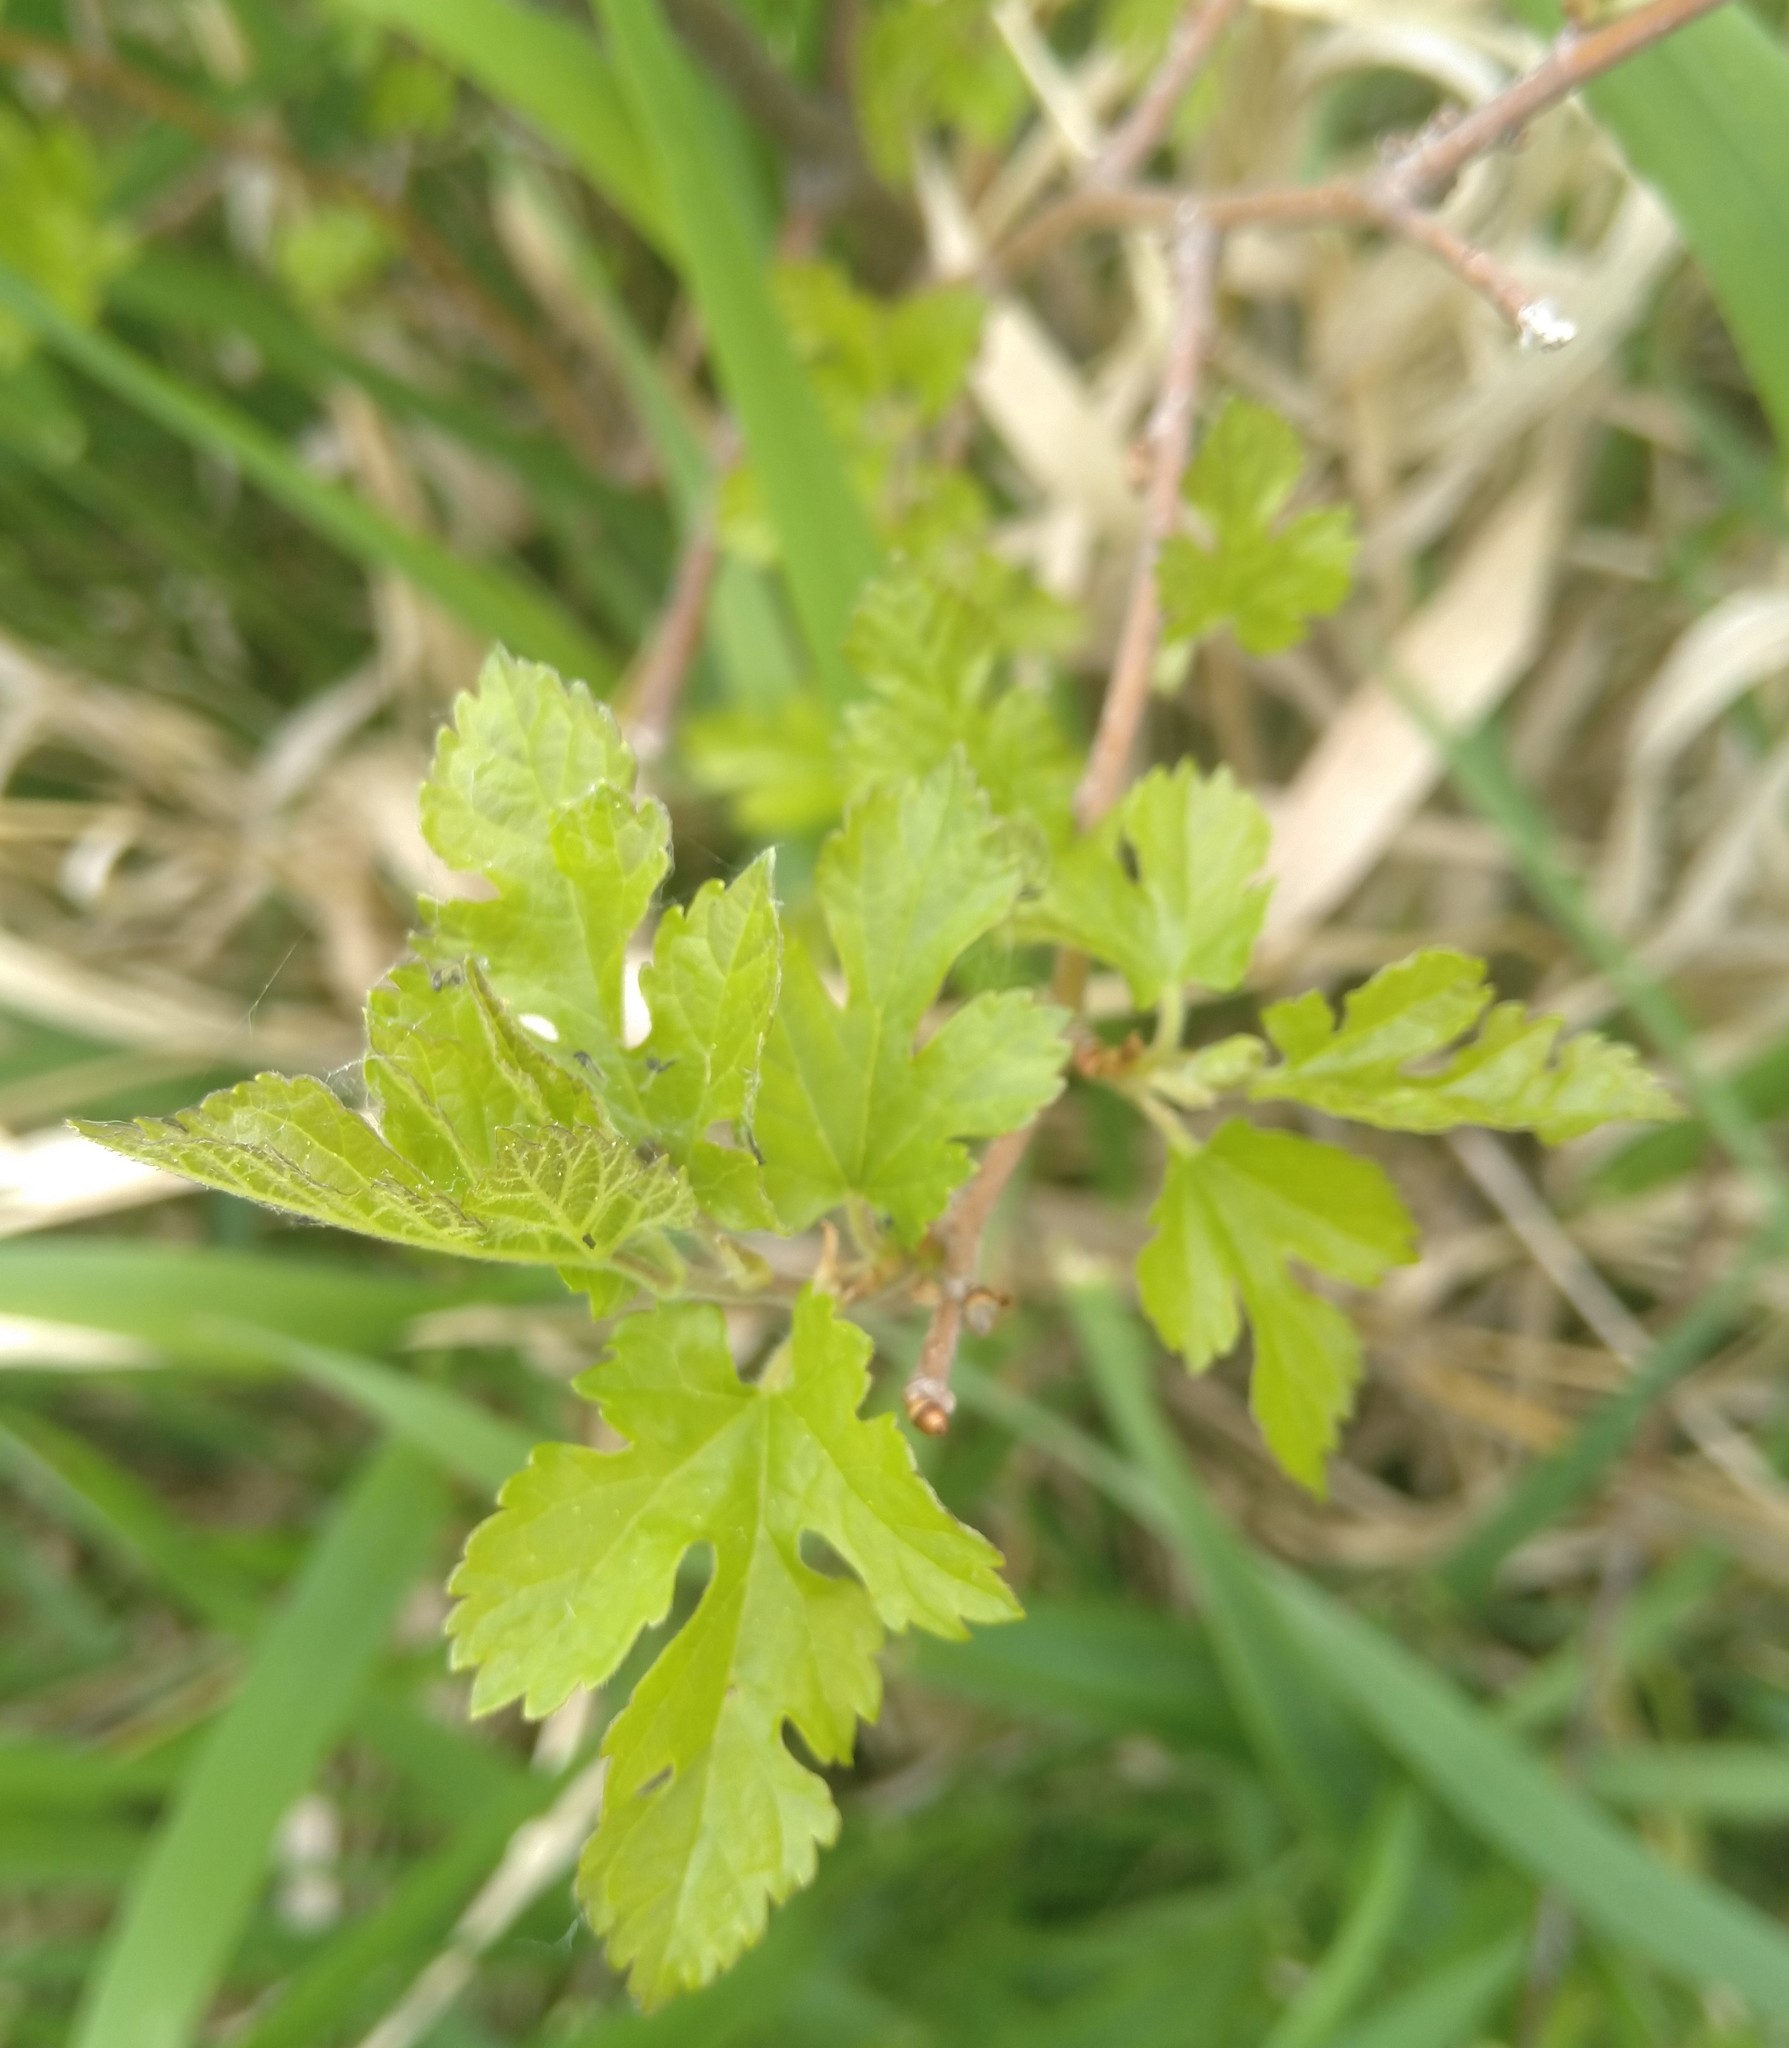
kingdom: Plantae
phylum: Tracheophyta
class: Magnoliopsida
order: Rosales
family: Moraceae
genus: Morus
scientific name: Morus alba
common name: White mulberry
